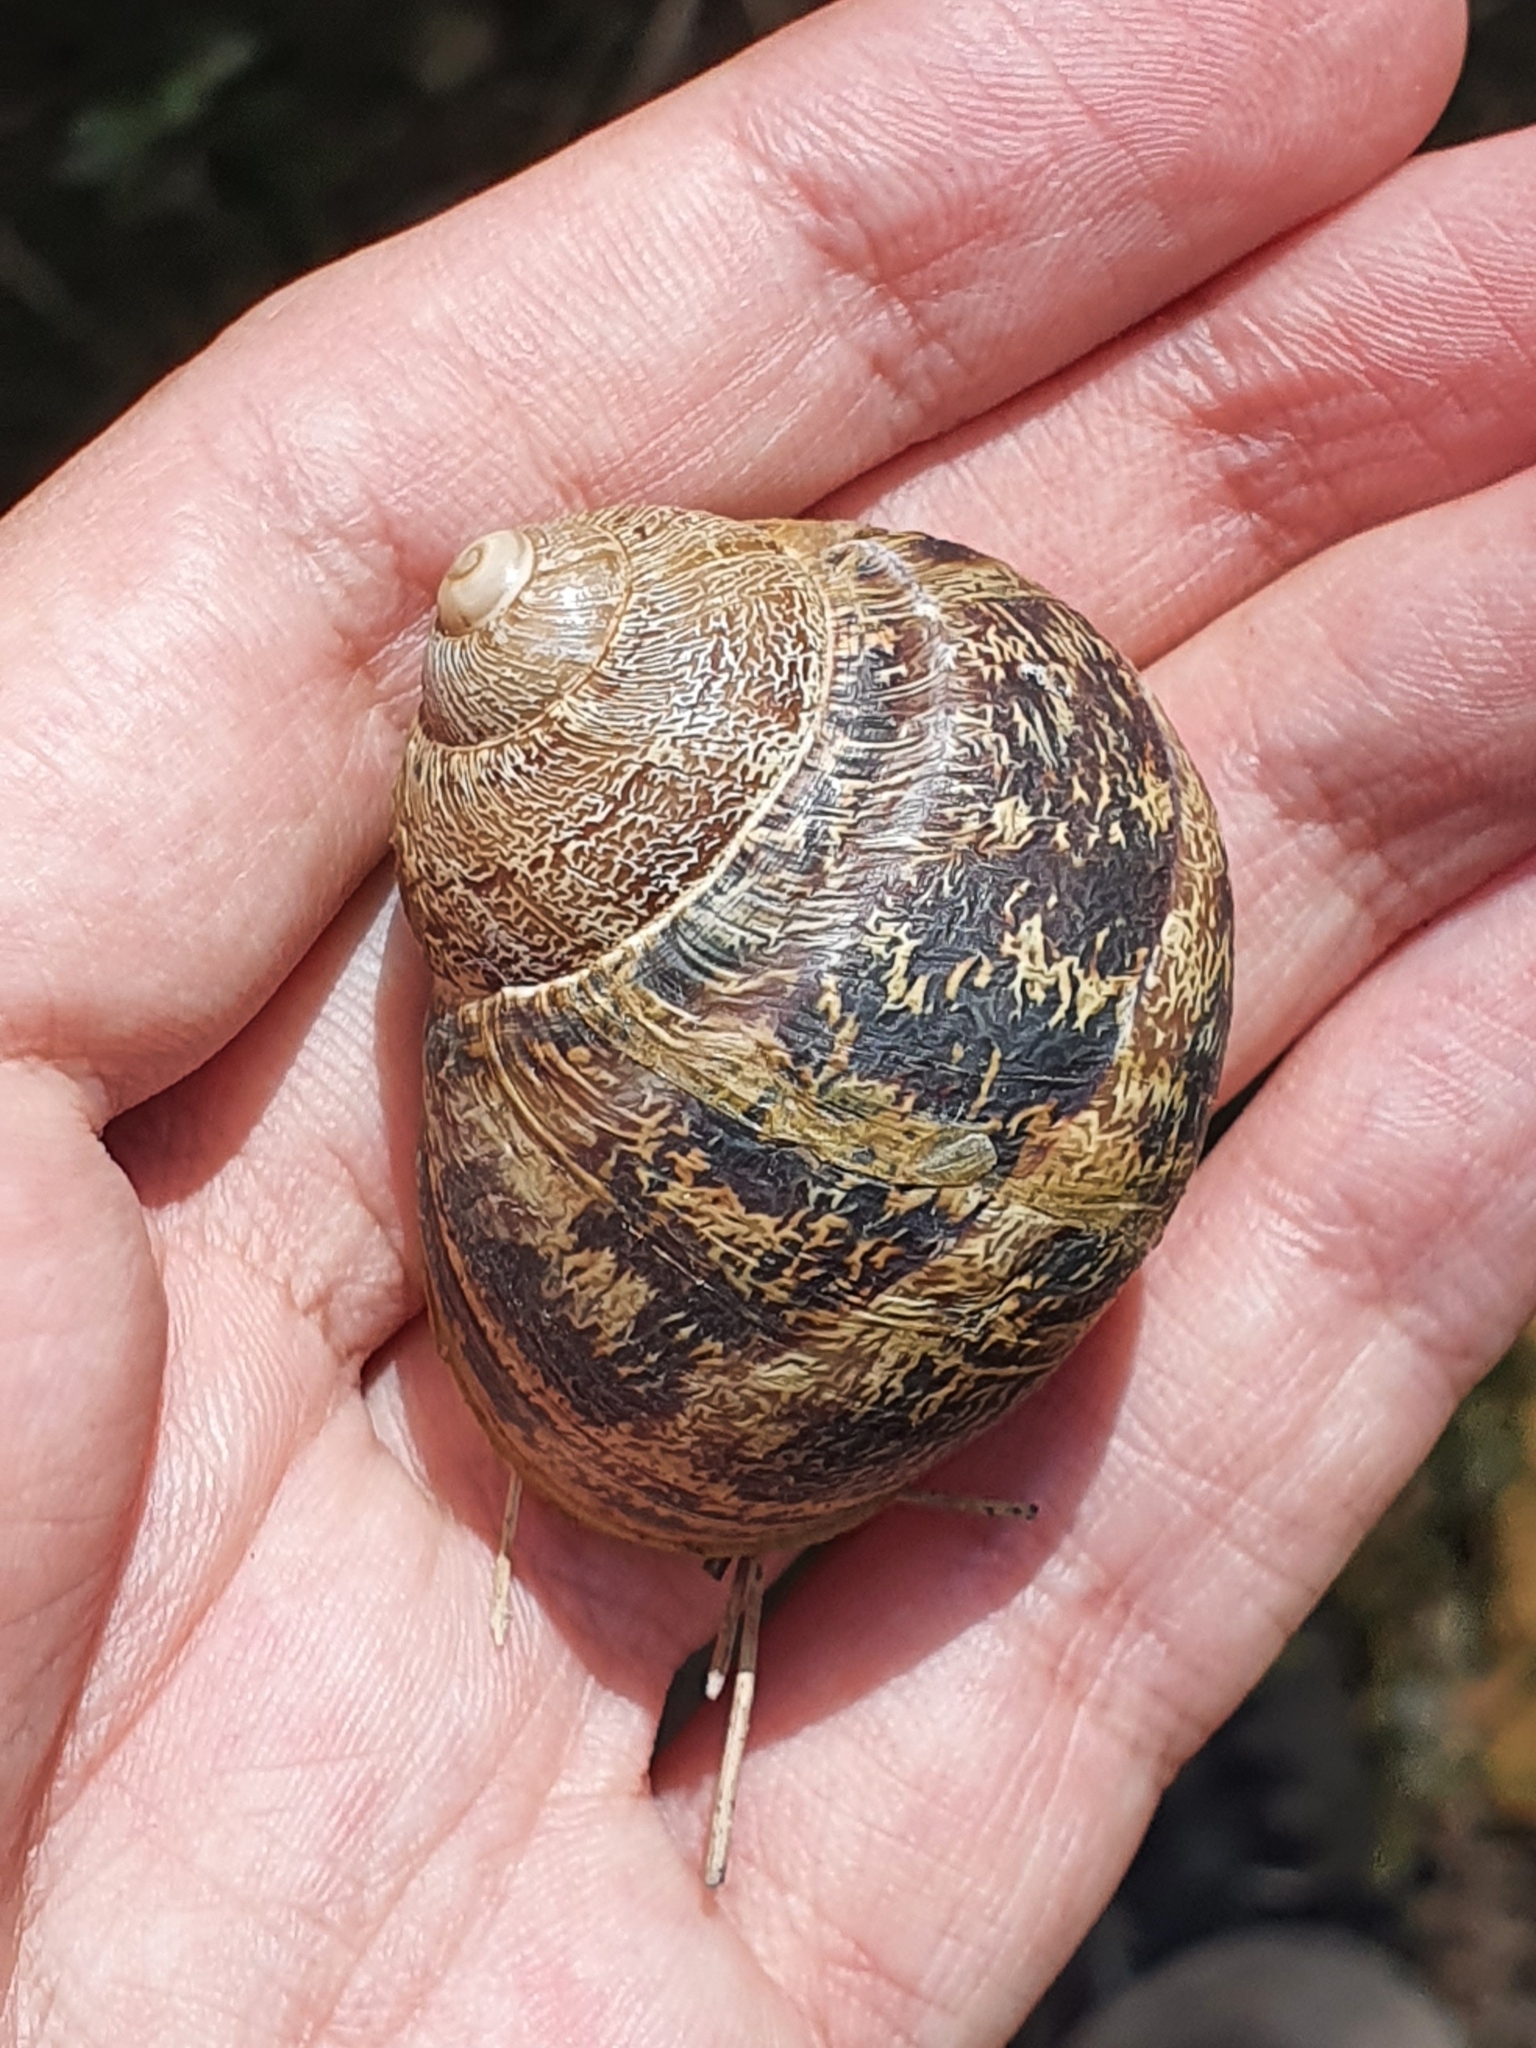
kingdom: Animalia
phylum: Mollusca
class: Gastropoda
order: Stylommatophora
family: Helicidae
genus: Cornu
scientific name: Cornu aspersum
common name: Brown garden snail
